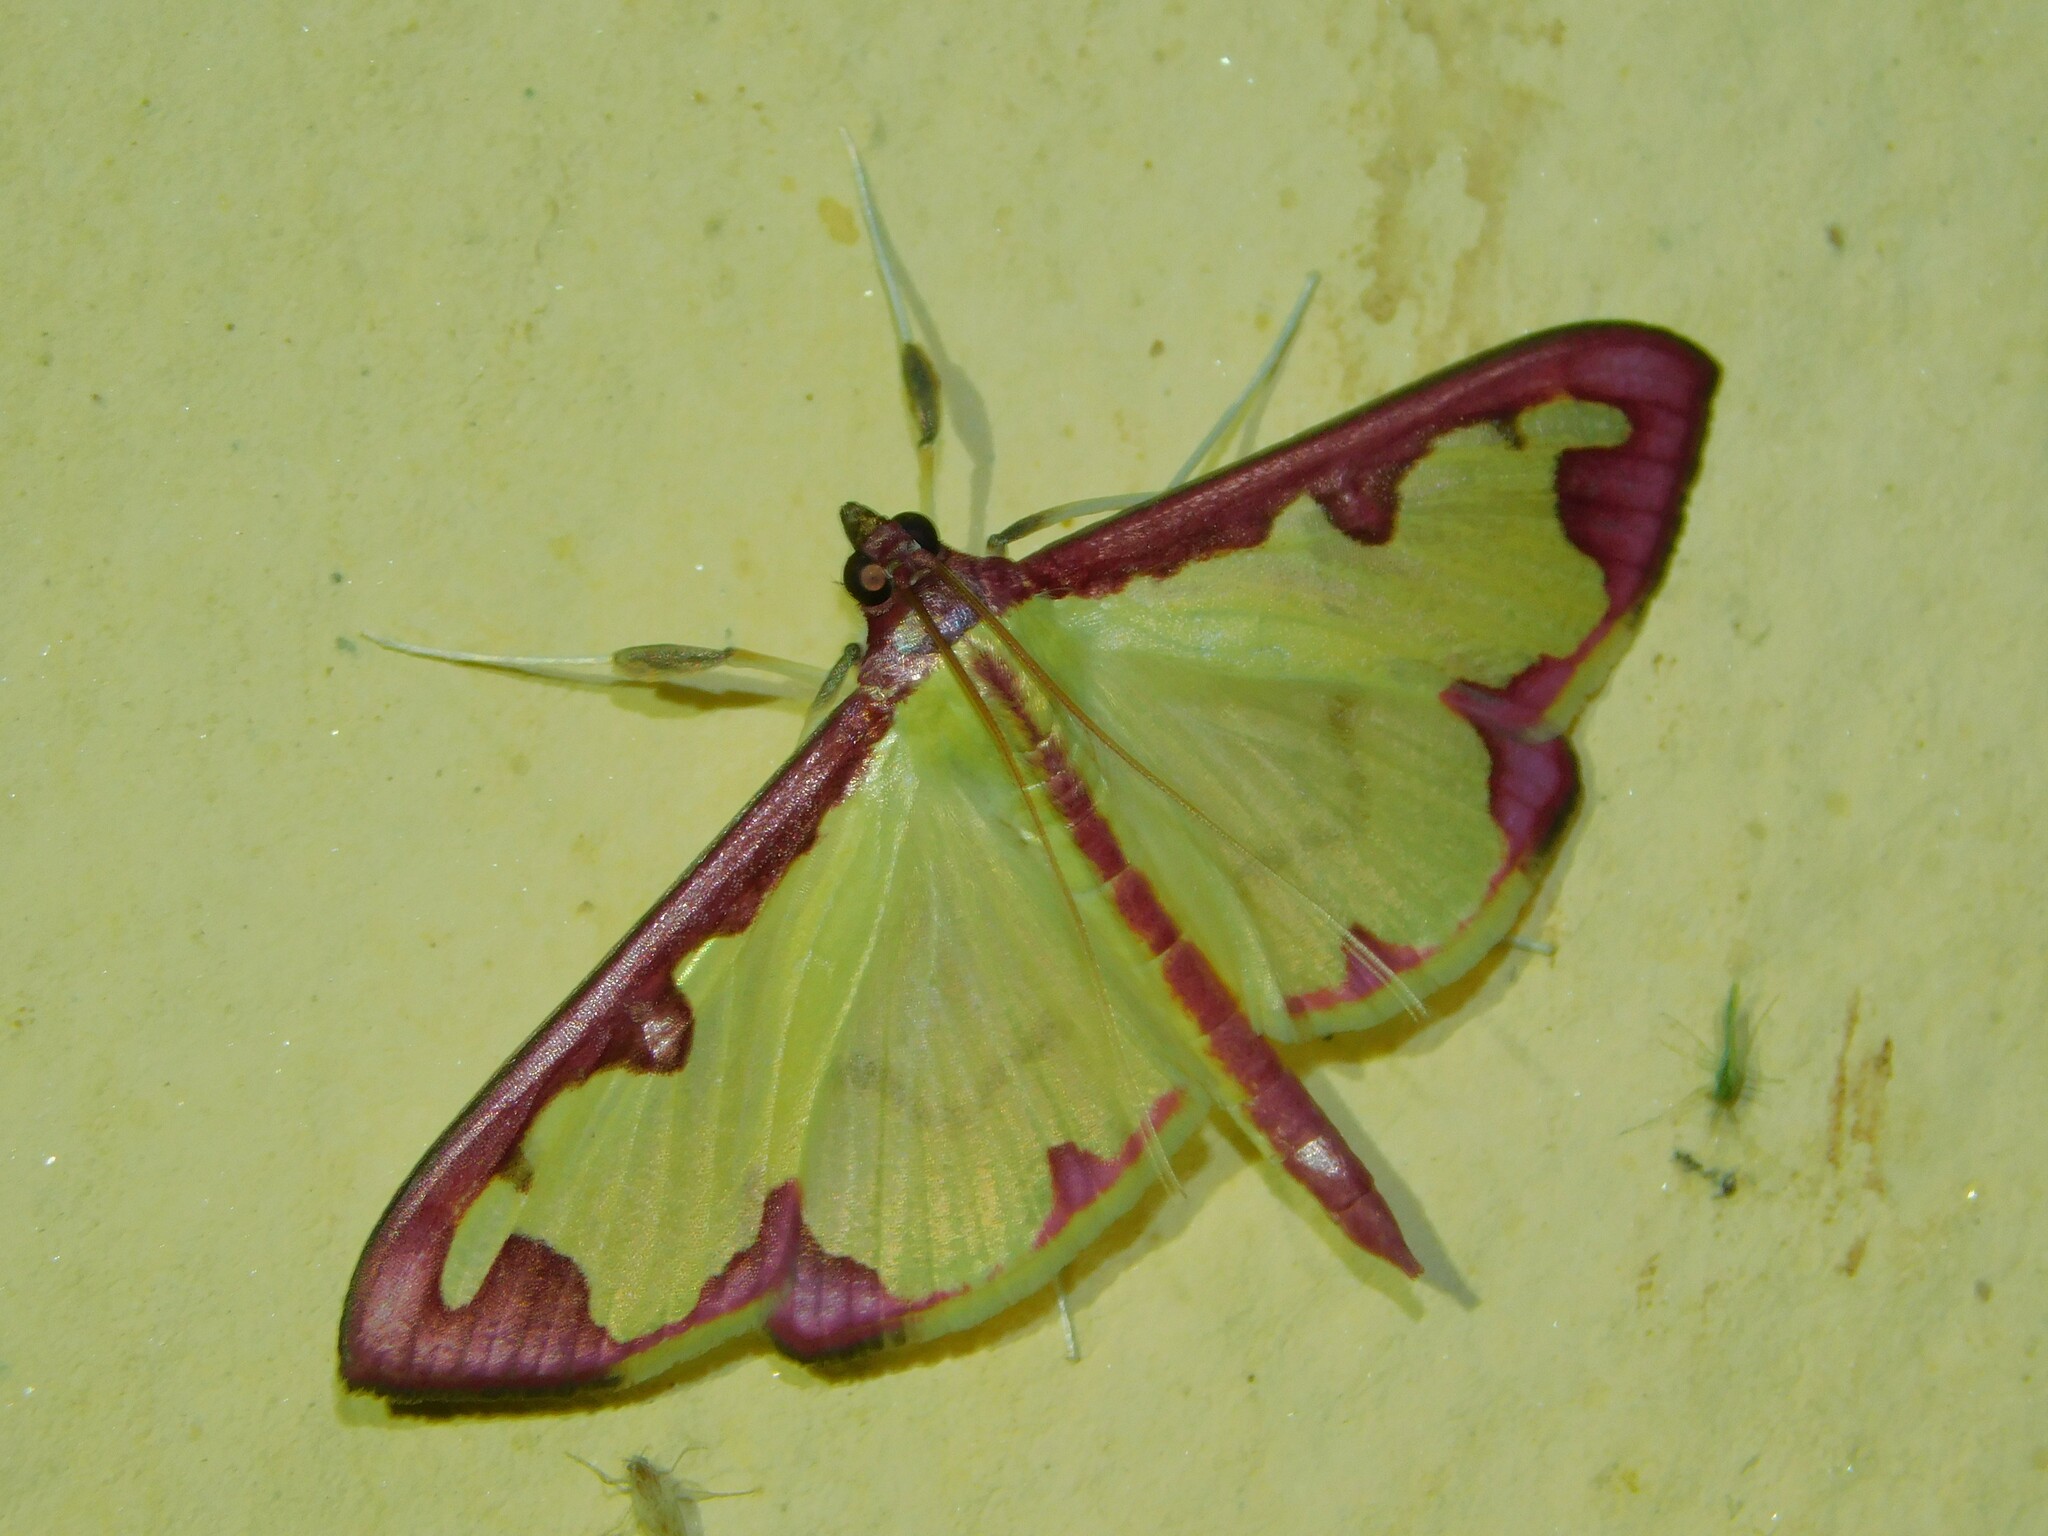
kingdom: Animalia
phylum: Arthropoda
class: Insecta
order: Lepidoptera
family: Crambidae
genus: Cadarena
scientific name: Cadarena pudoraria
